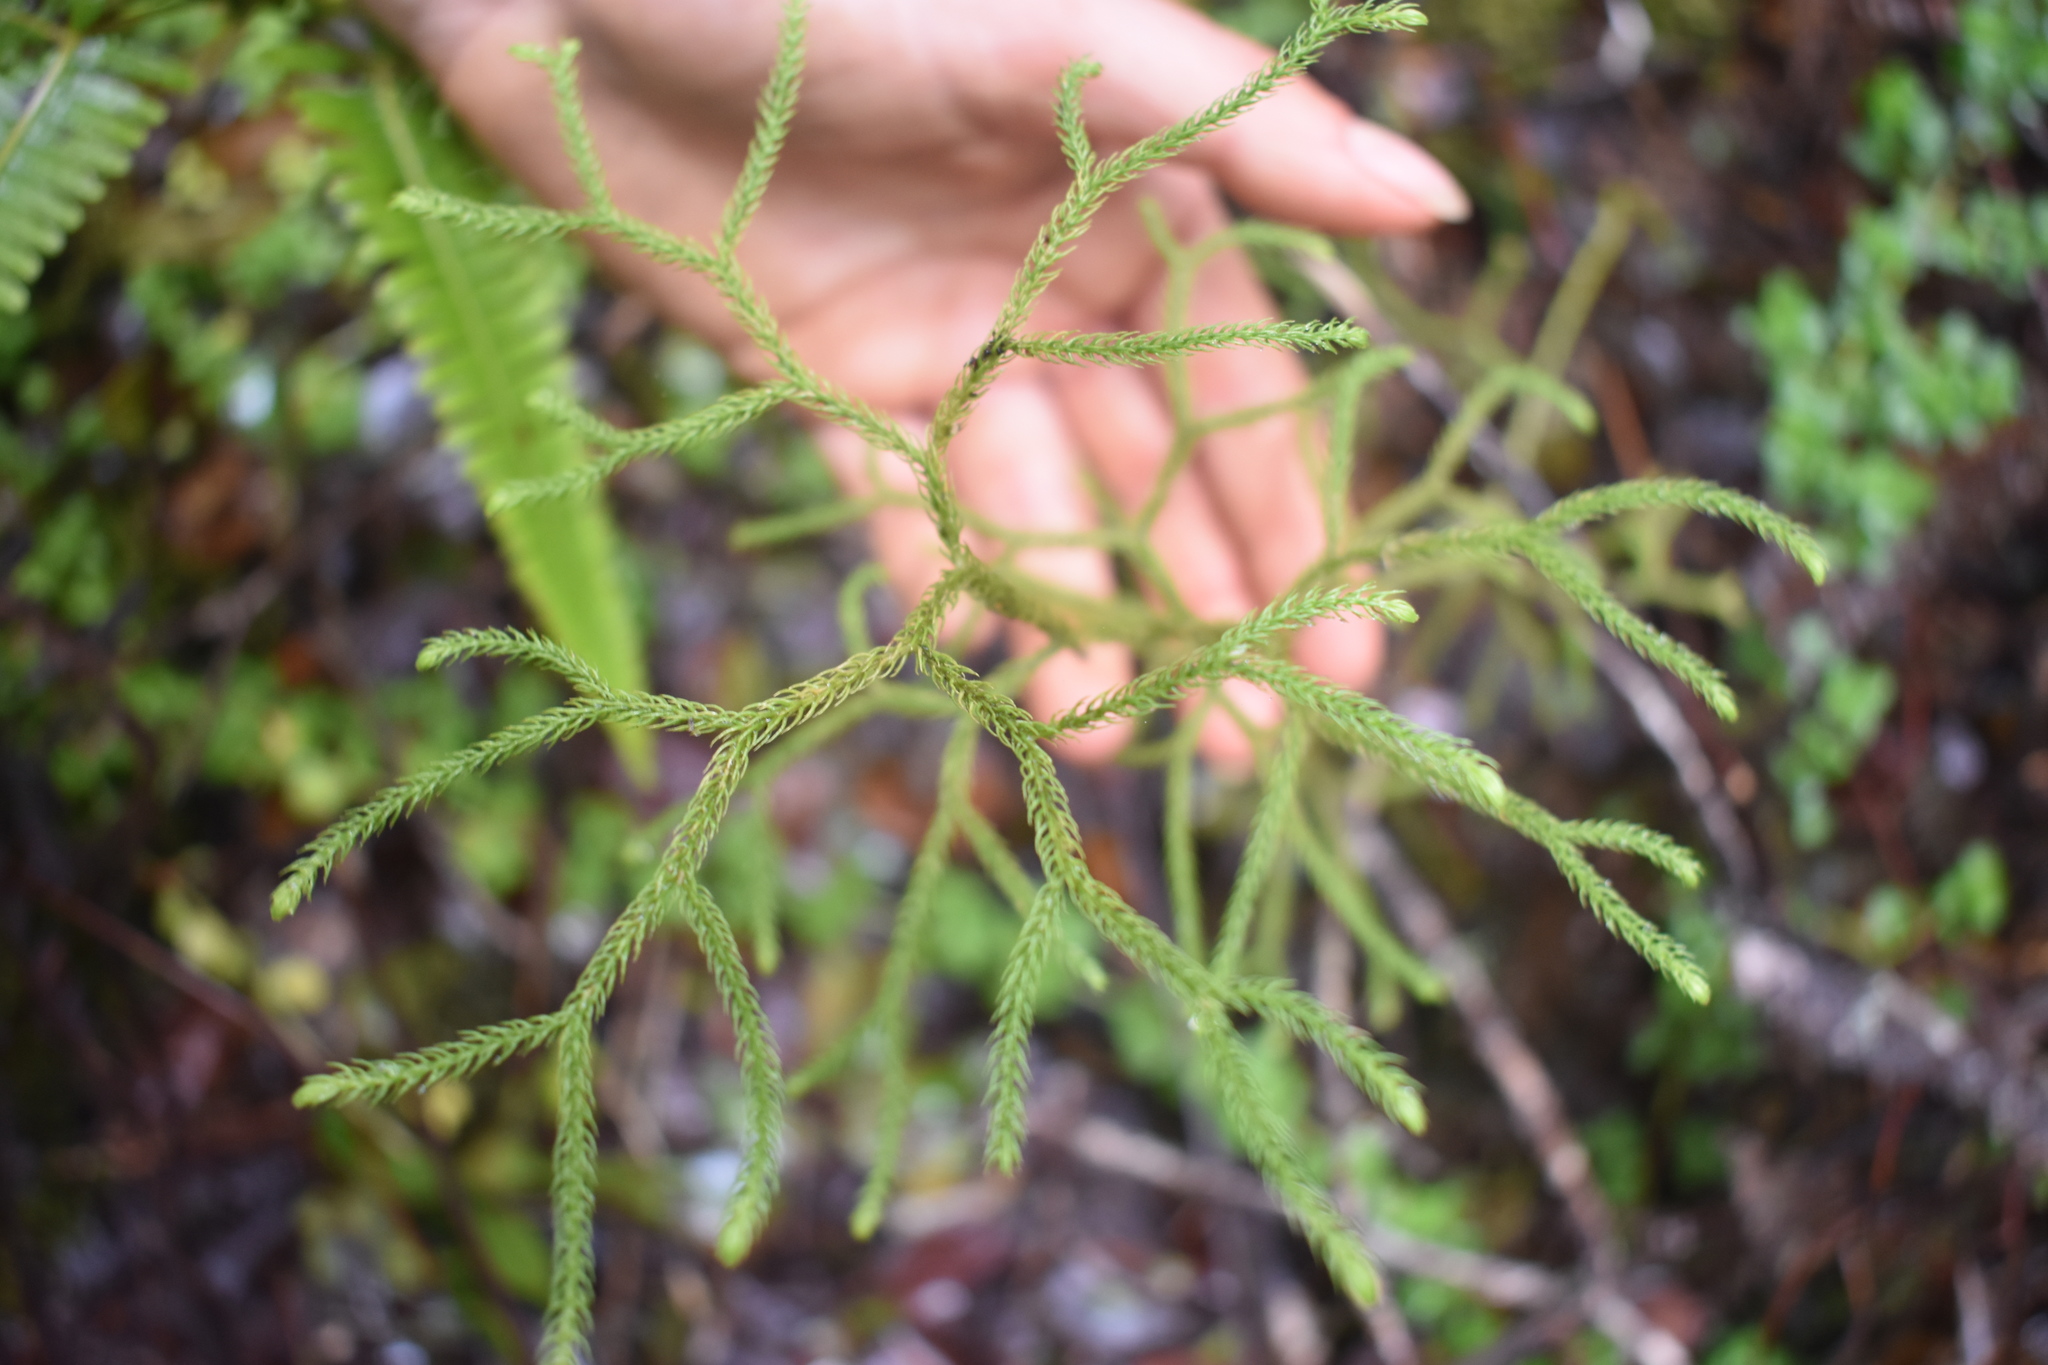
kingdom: Plantae
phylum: Tracheophyta
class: Lycopodiopsida
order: Lycopodiales
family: Lycopodiaceae
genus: Palhinhaea
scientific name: Palhinhaea cernua
